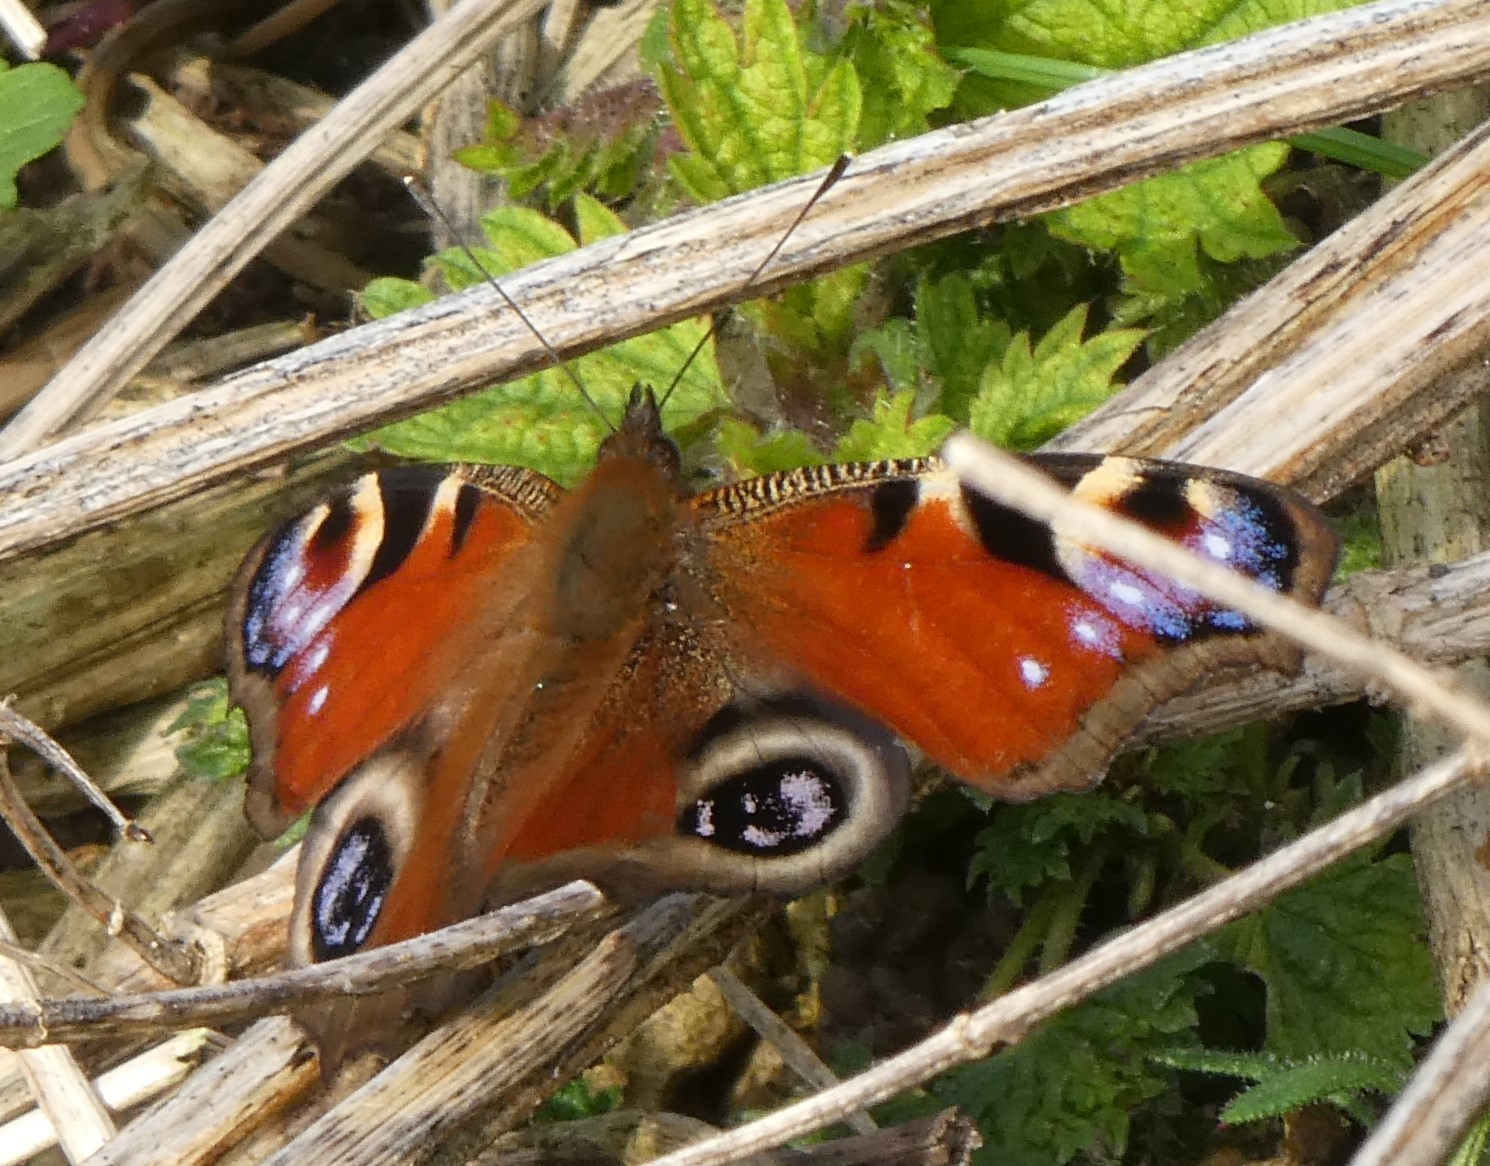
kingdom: Animalia
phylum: Arthropoda
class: Insecta
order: Lepidoptera
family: Nymphalidae
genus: Aglais
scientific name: Aglais io
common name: Peacock
